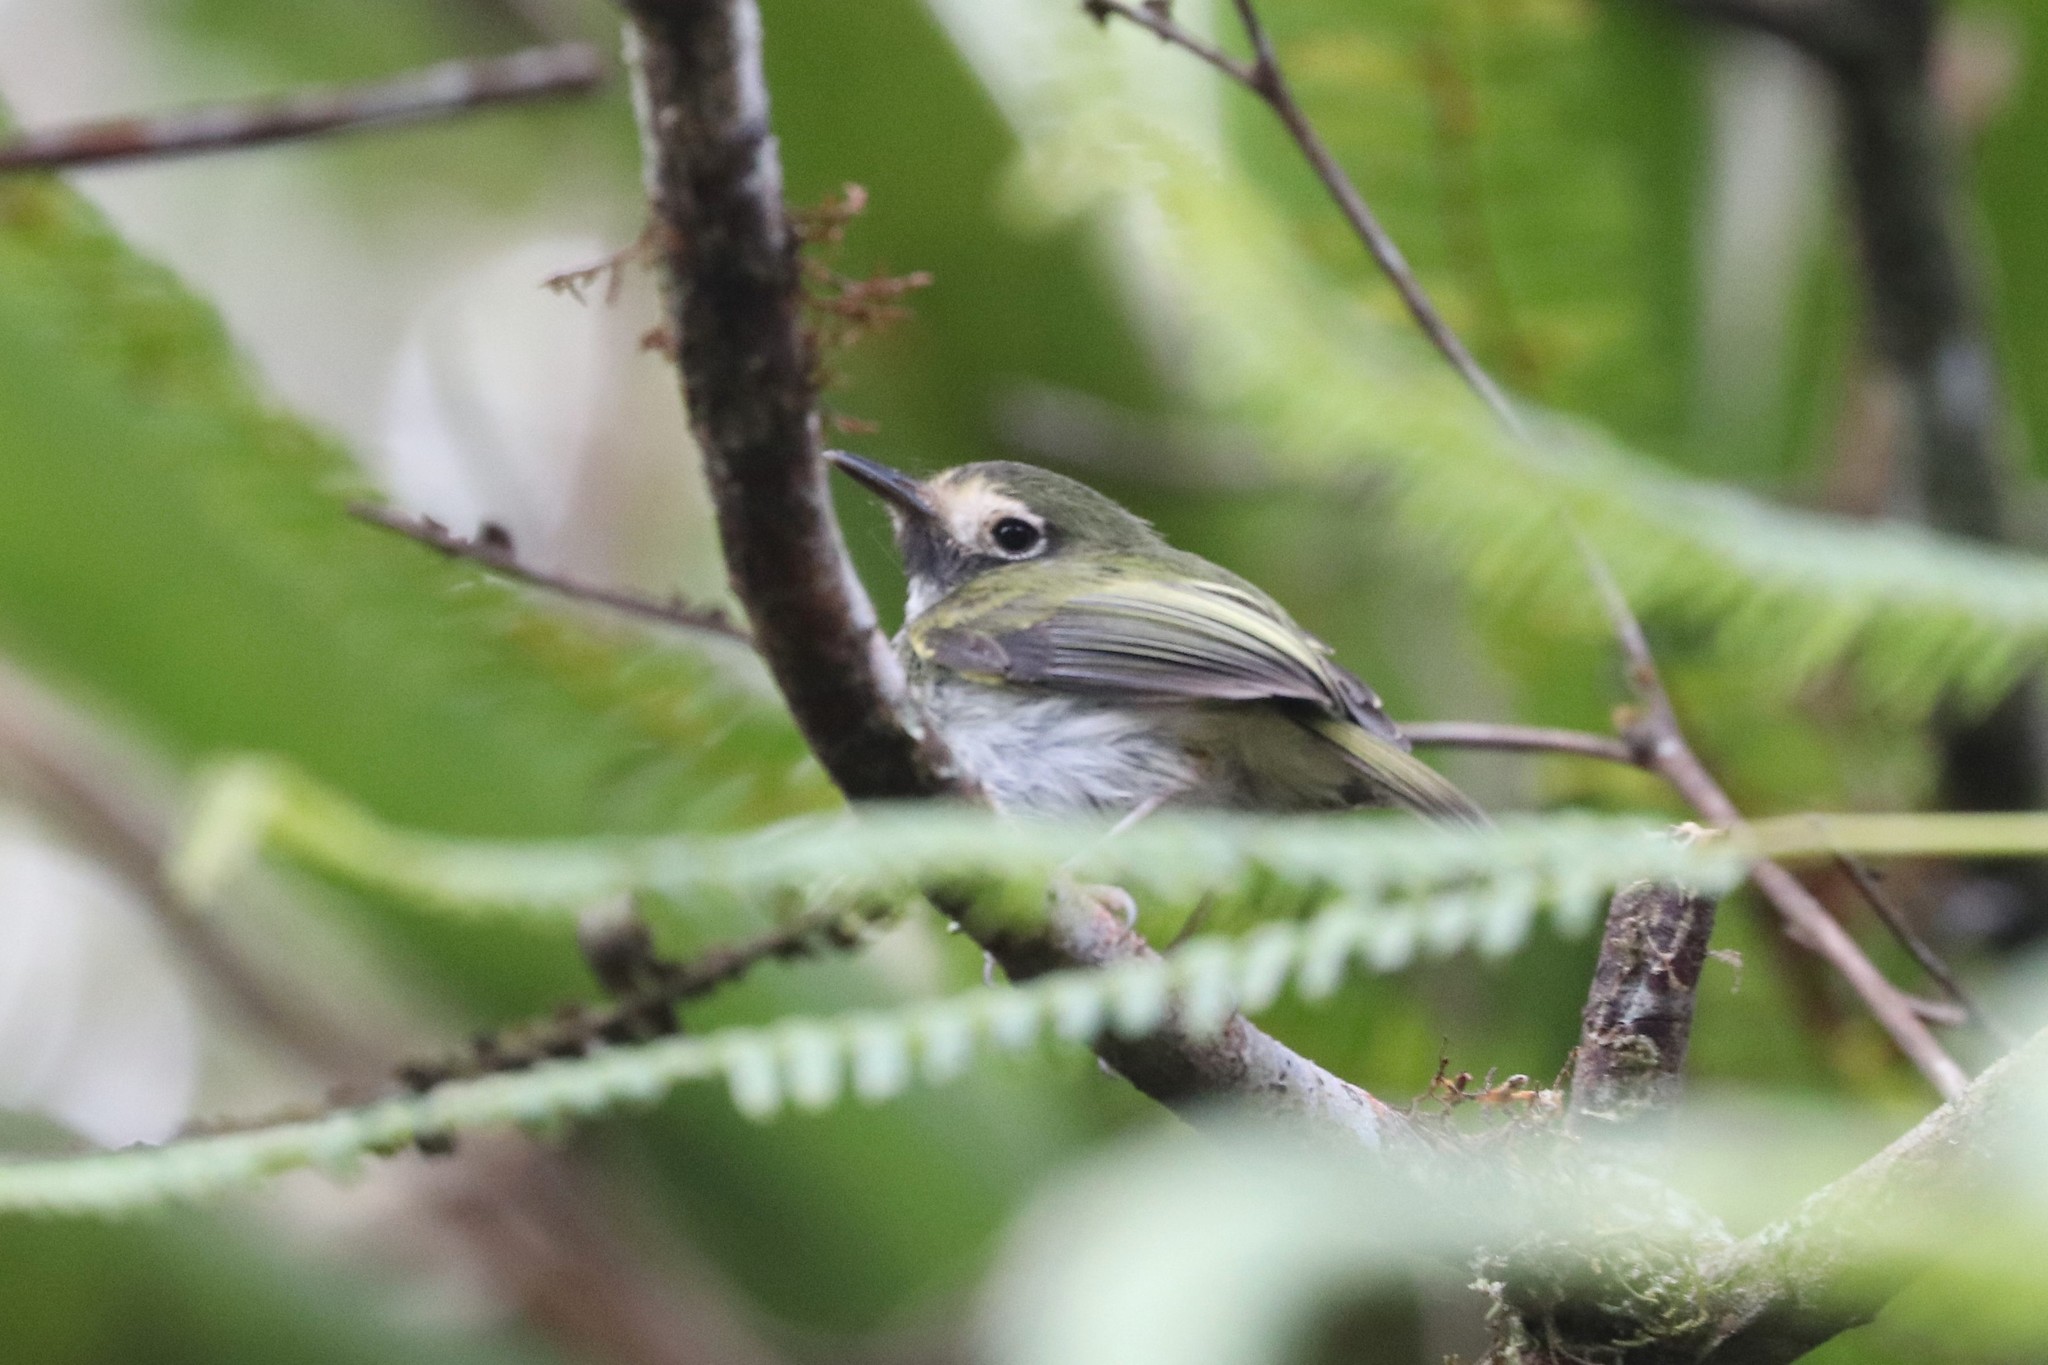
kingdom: Animalia
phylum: Chordata
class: Aves
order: Passeriformes
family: Tyrannidae
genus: Hemitriccus
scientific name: Hemitriccus granadensis
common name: Black-throated tody-tyrant
